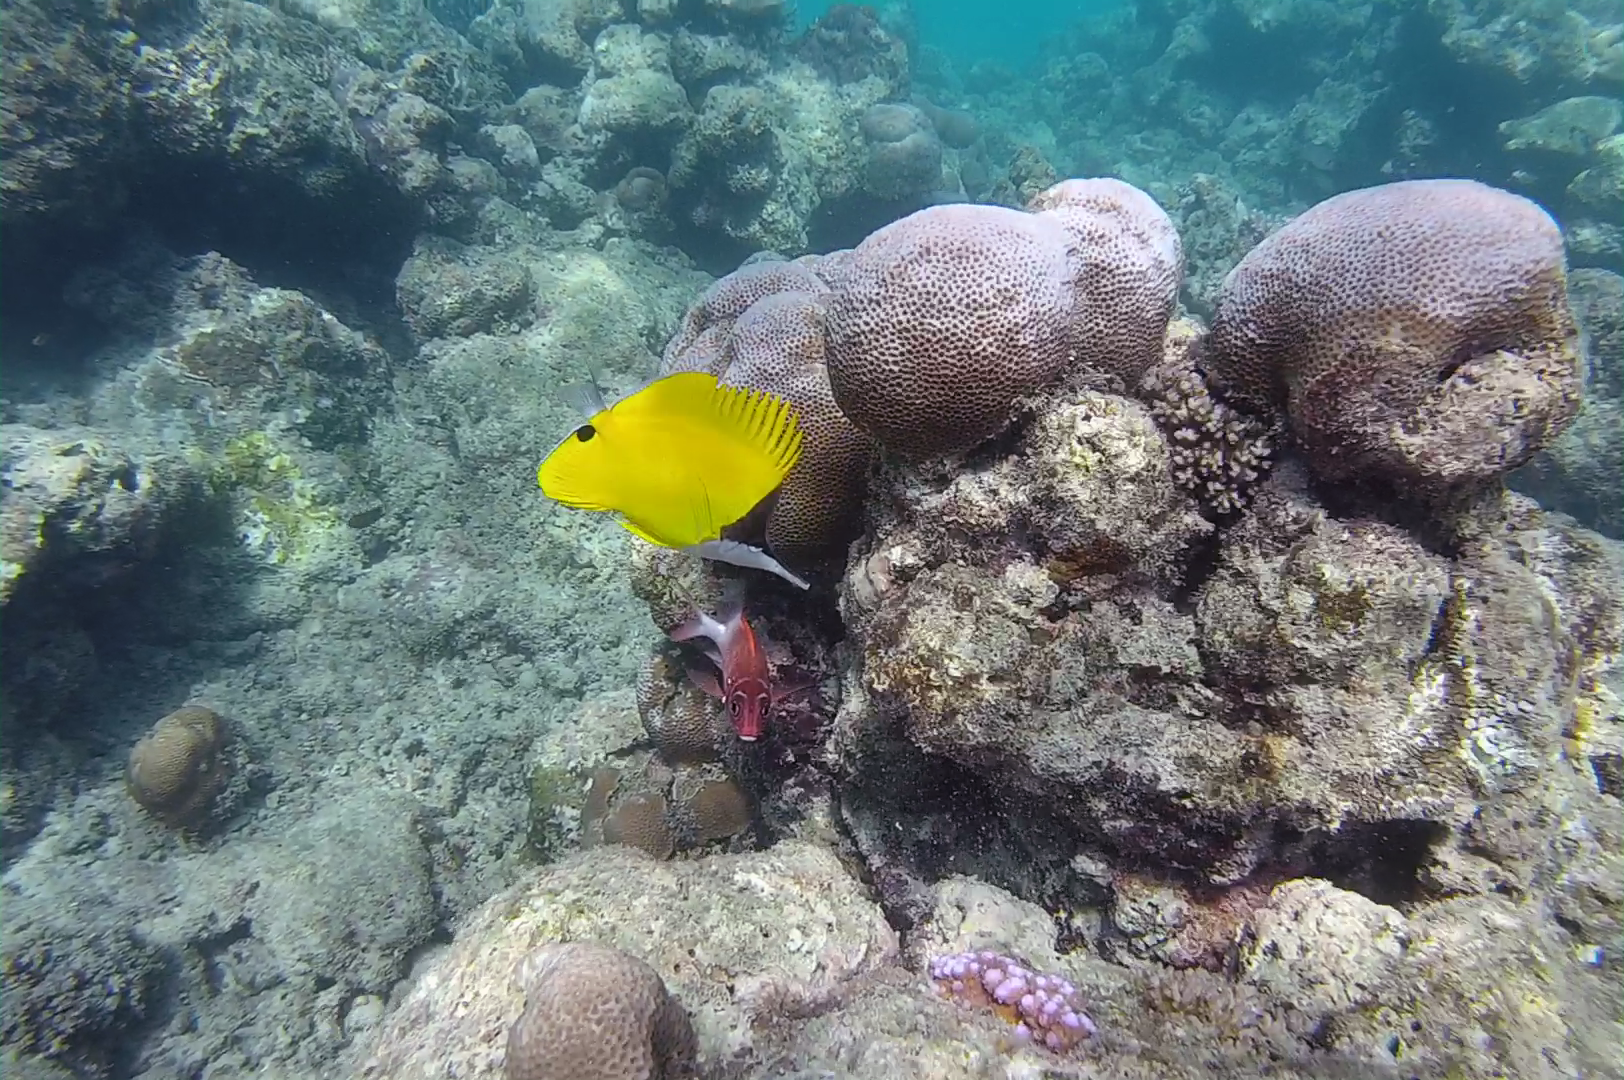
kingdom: Animalia
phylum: Chordata
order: Perciformes
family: Chaetodontidae
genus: Forcipiger
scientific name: Forcipiger flavissimus
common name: Forcepsfish
